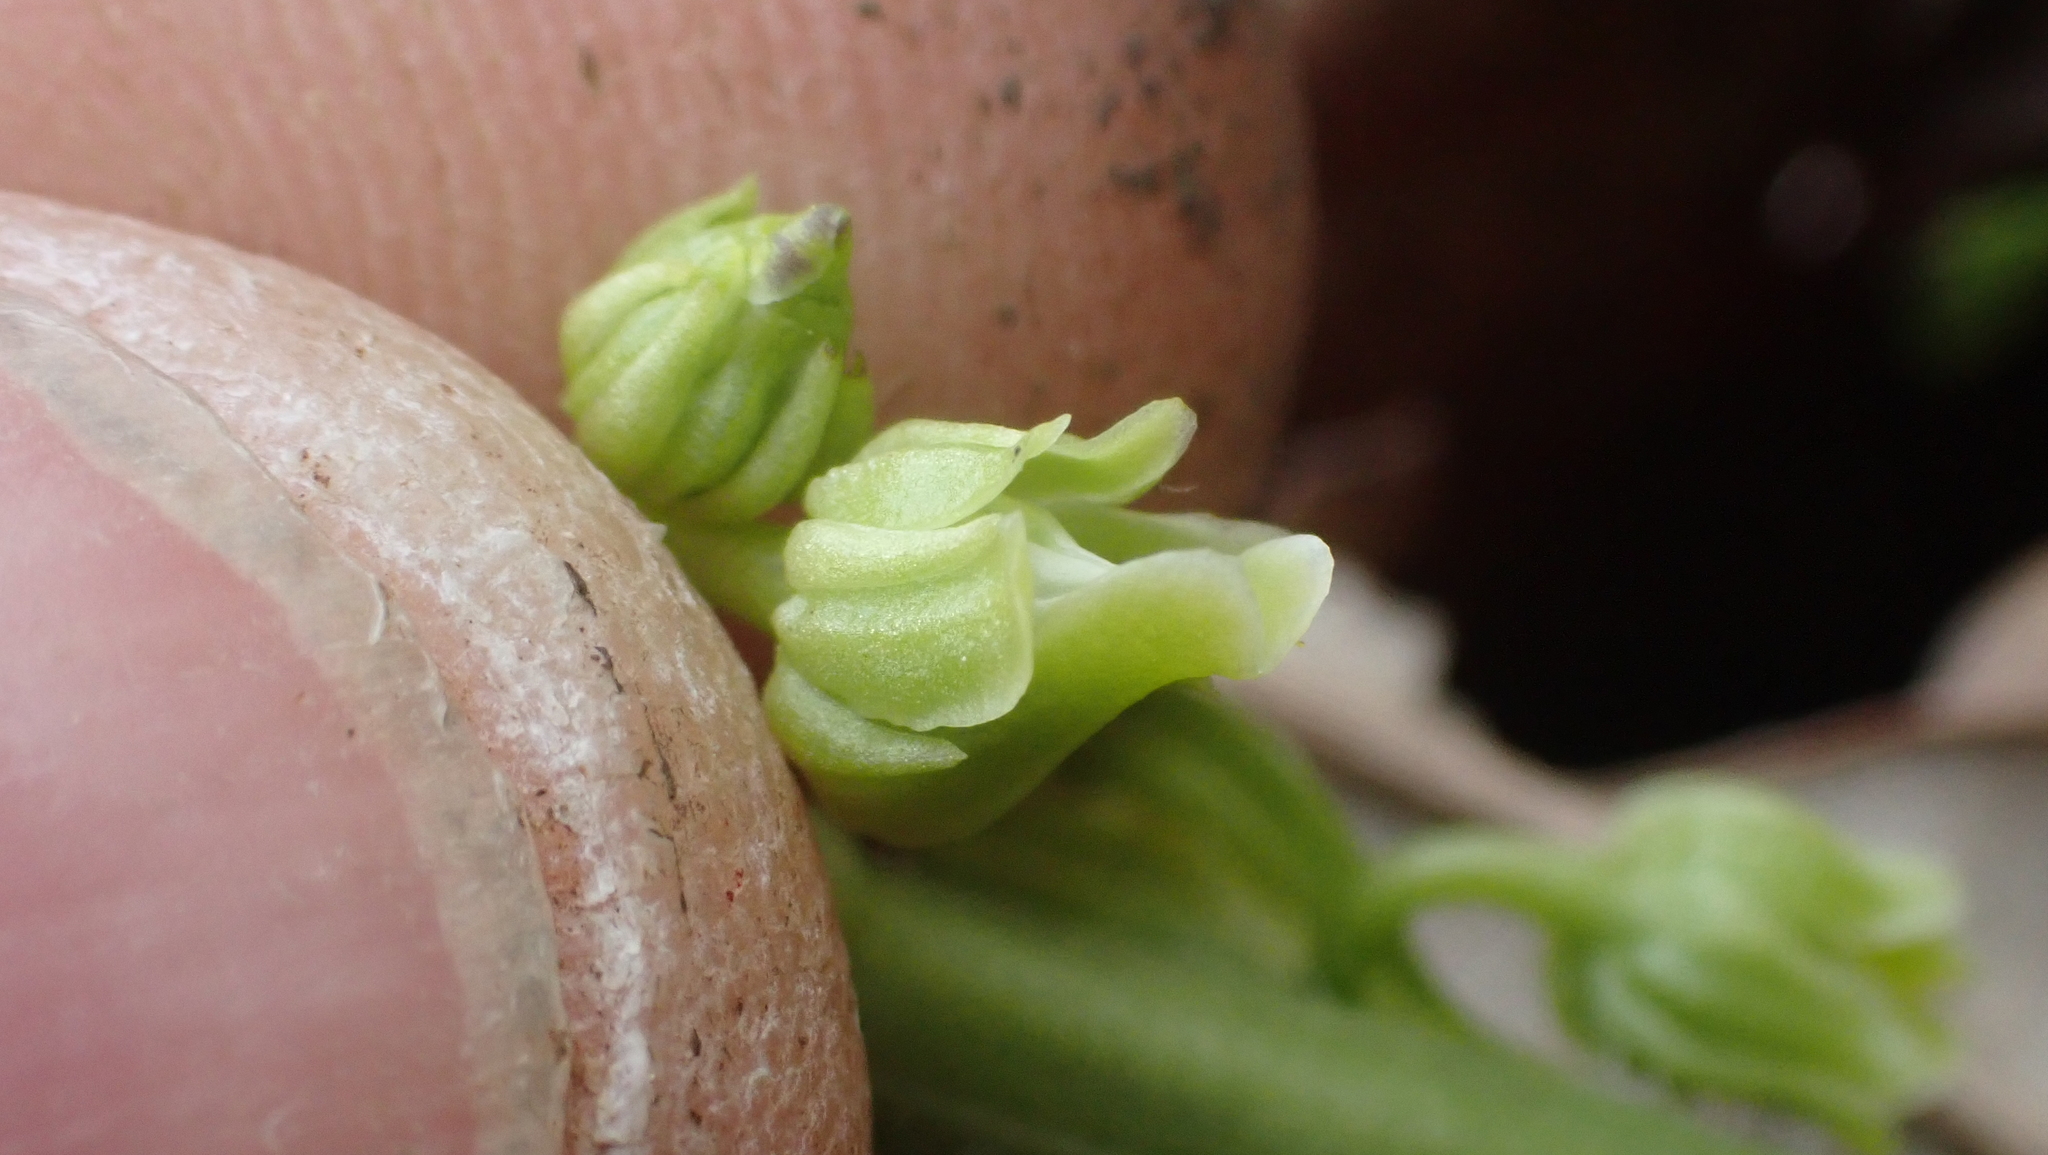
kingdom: Plantae
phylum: Tracheophyta
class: Magnoliopsida
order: Malpighiales
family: Violaceae
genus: Cubelium
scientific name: Cubelium concolor
